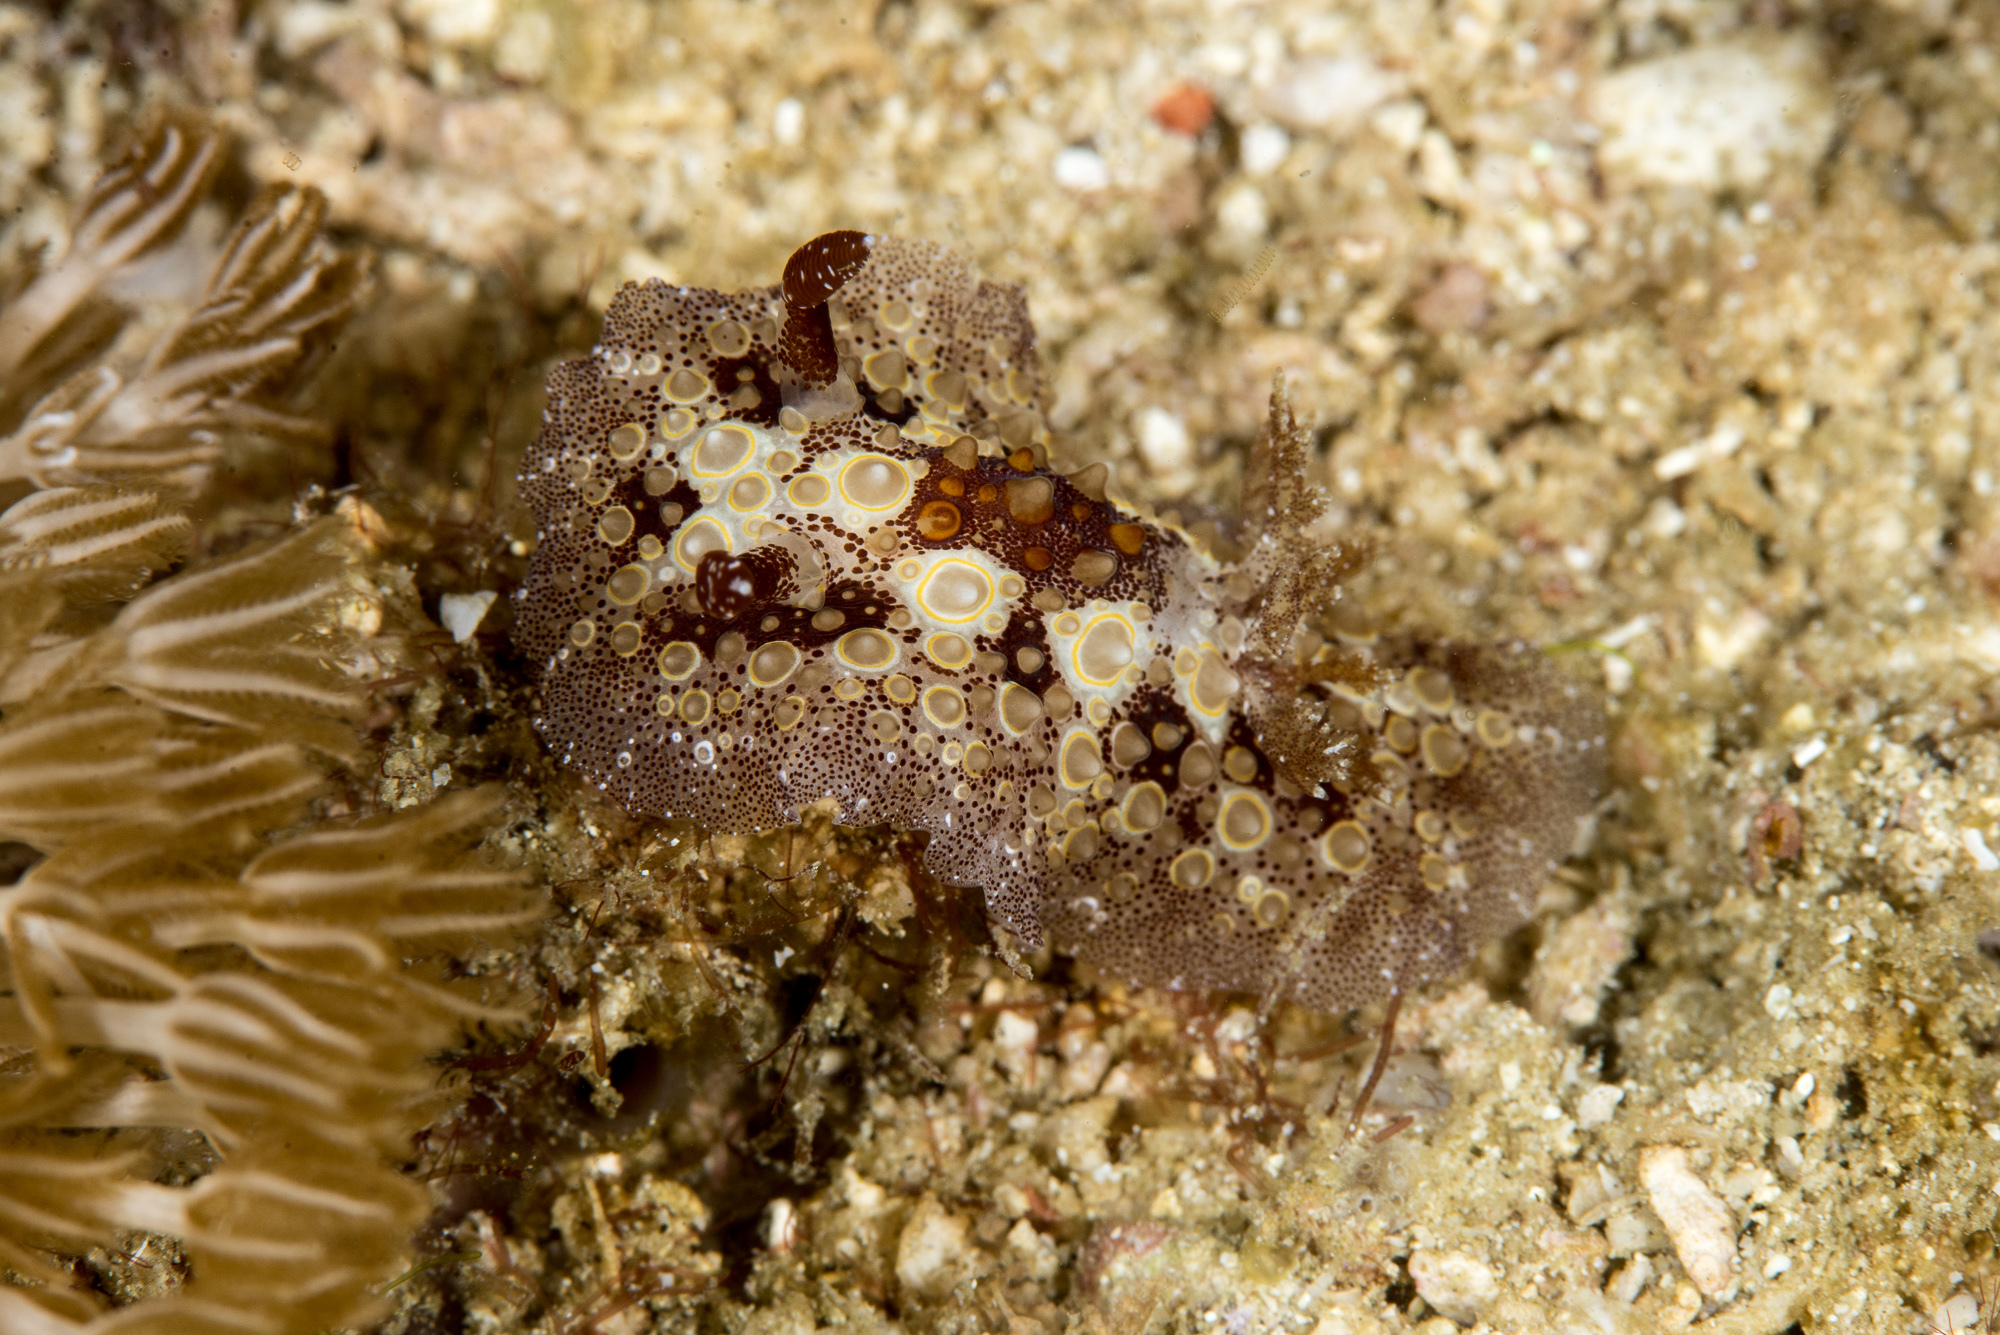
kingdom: Animalia
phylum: Mollusca
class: Gastropoda
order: Nudibranchia
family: Discodorididae
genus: Carminodoris
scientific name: Carminodoris estrelyado
